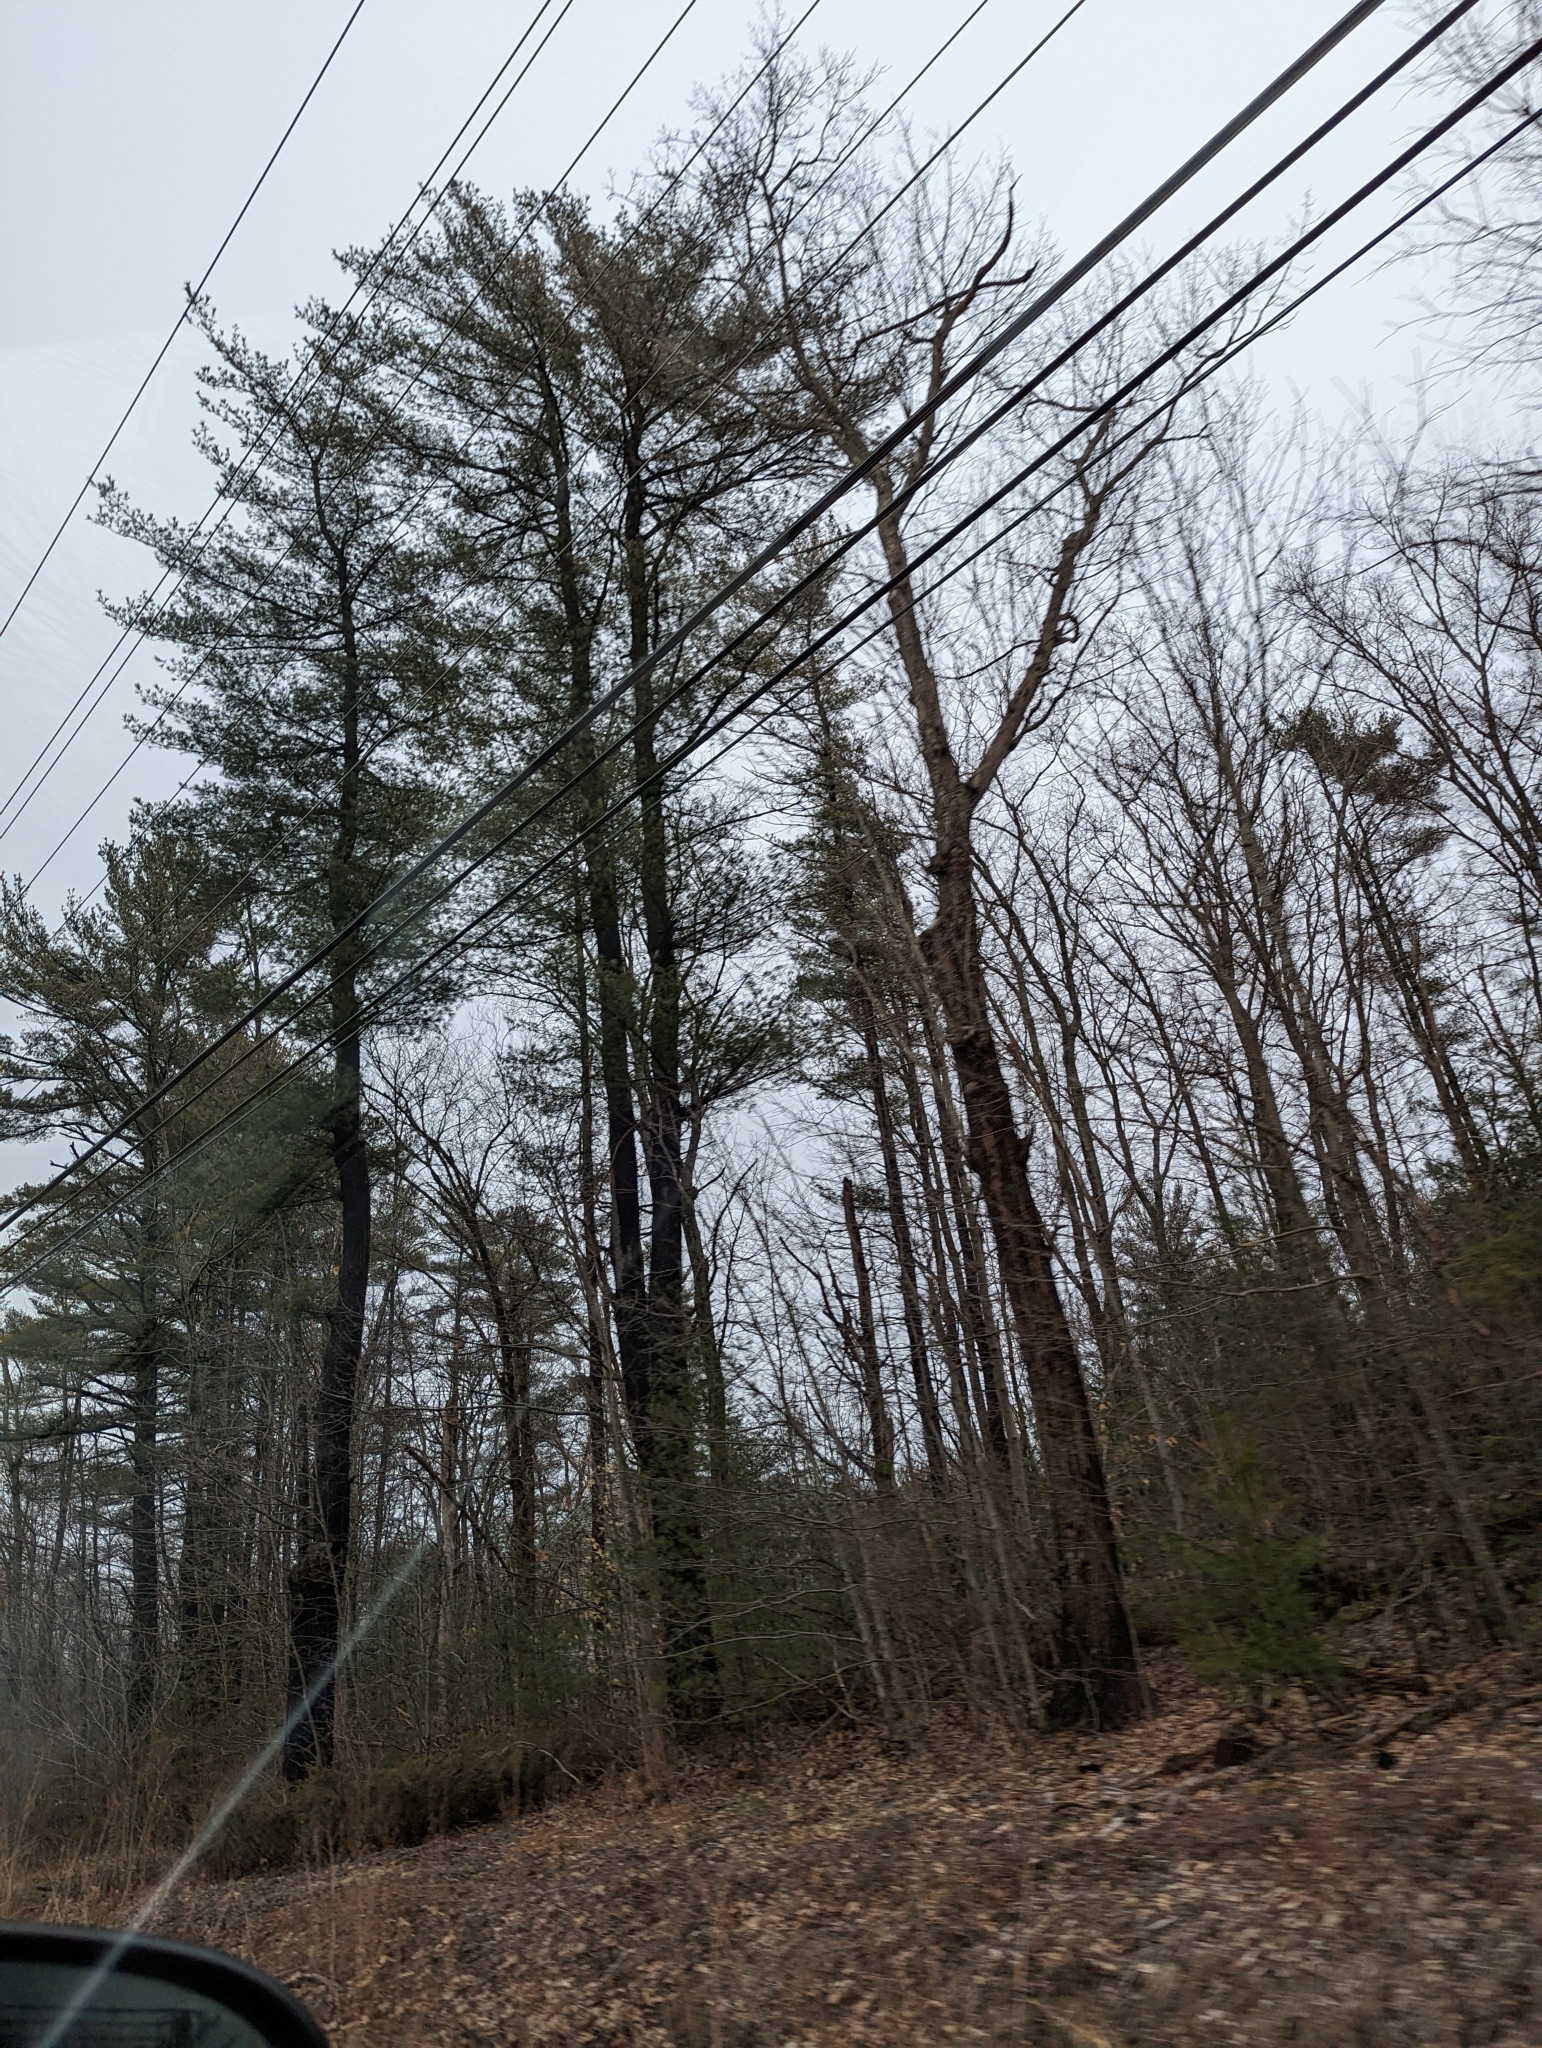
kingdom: Plantae
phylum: Tracheophyta
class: Pinopsida
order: Pinales
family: Pinaceae
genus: Pinus
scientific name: Pinus strobus
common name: Weymouth pine
